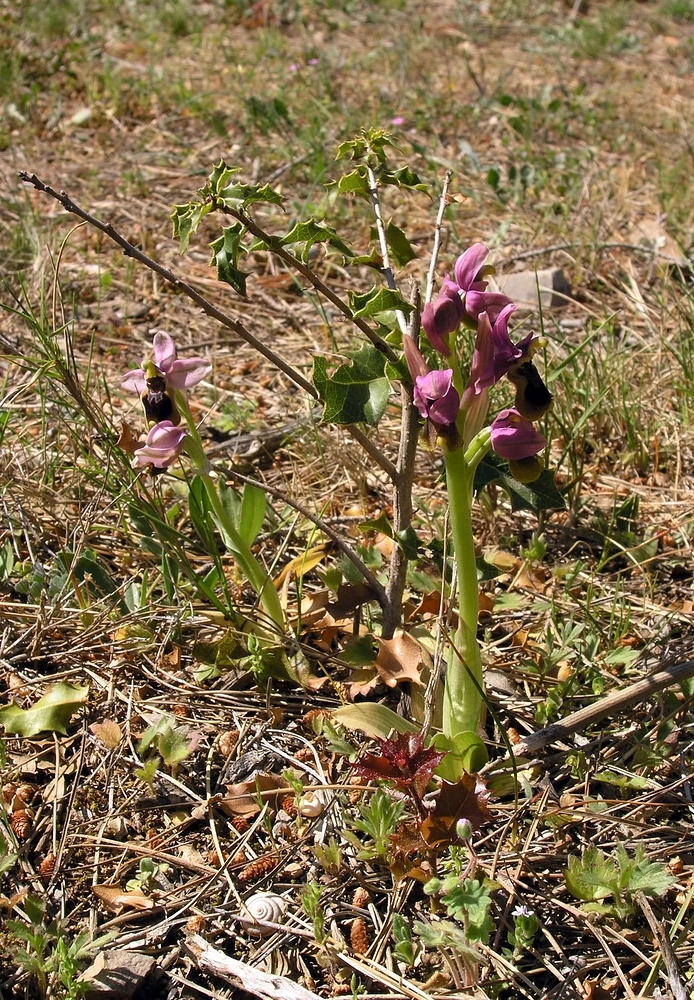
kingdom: Plantae
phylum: Tracheophyta
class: Liliopsida
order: Asparagales
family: Orchidaceae
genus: Ophrys
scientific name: Ophrys tenthredinifera
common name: Sawfly orchid
